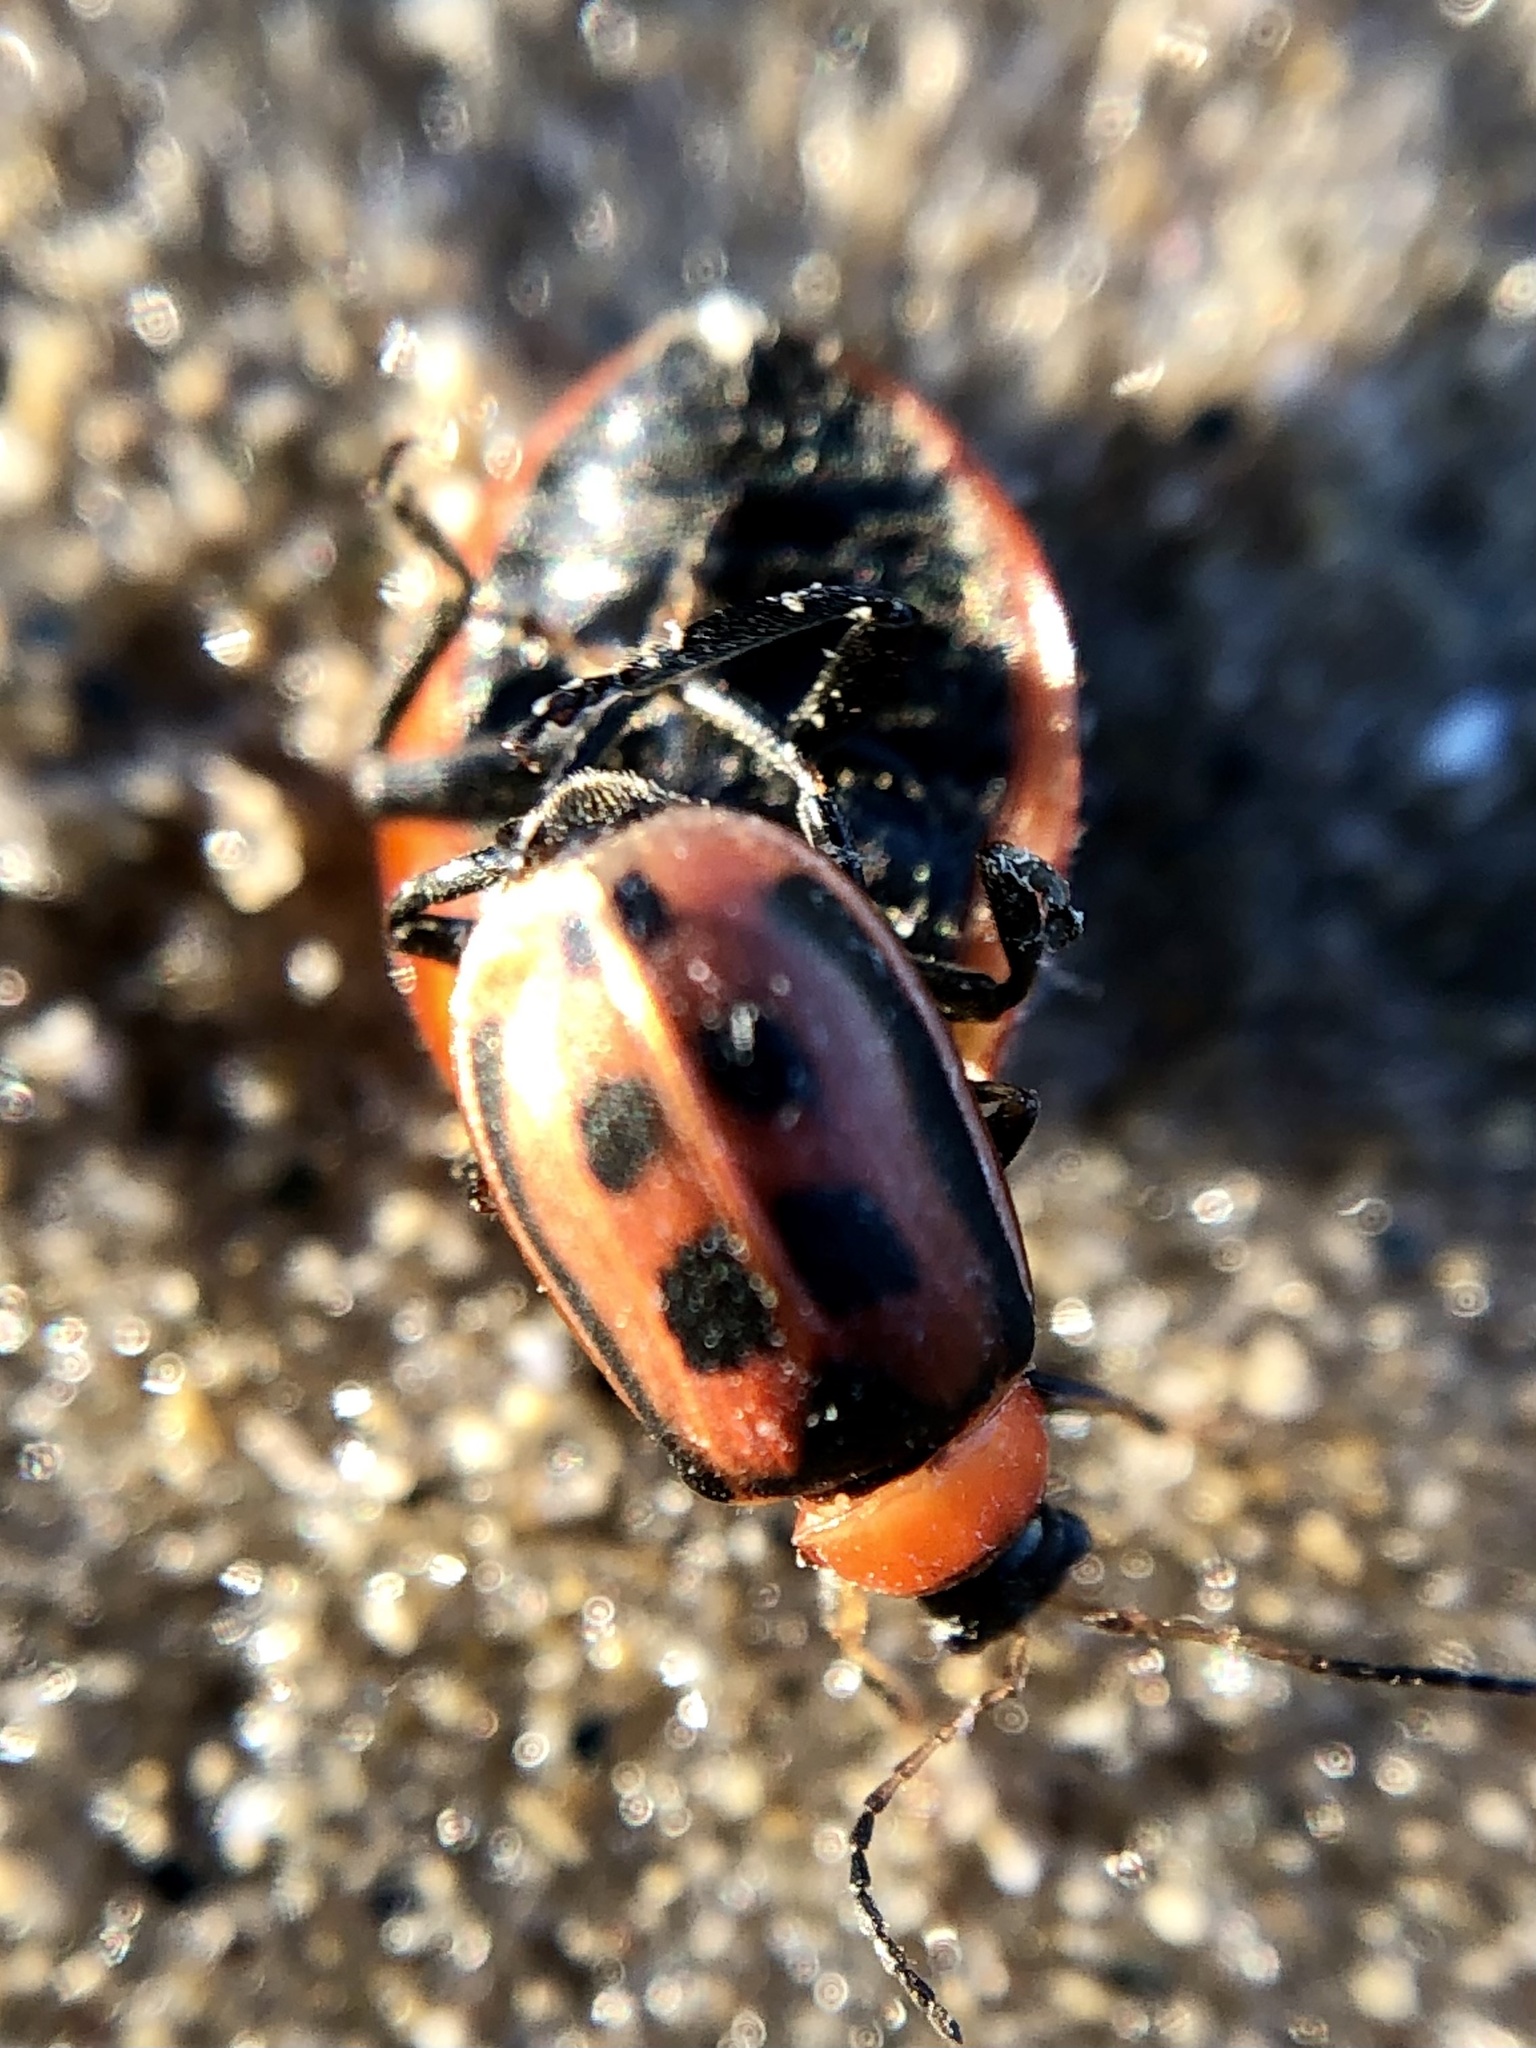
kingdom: Animalia
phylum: Arthropoda
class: Insecta
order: Coleoptera
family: Chrysomelidae
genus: Cerotoma
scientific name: Cerotoma trifurcata
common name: Bean leaf beetle
